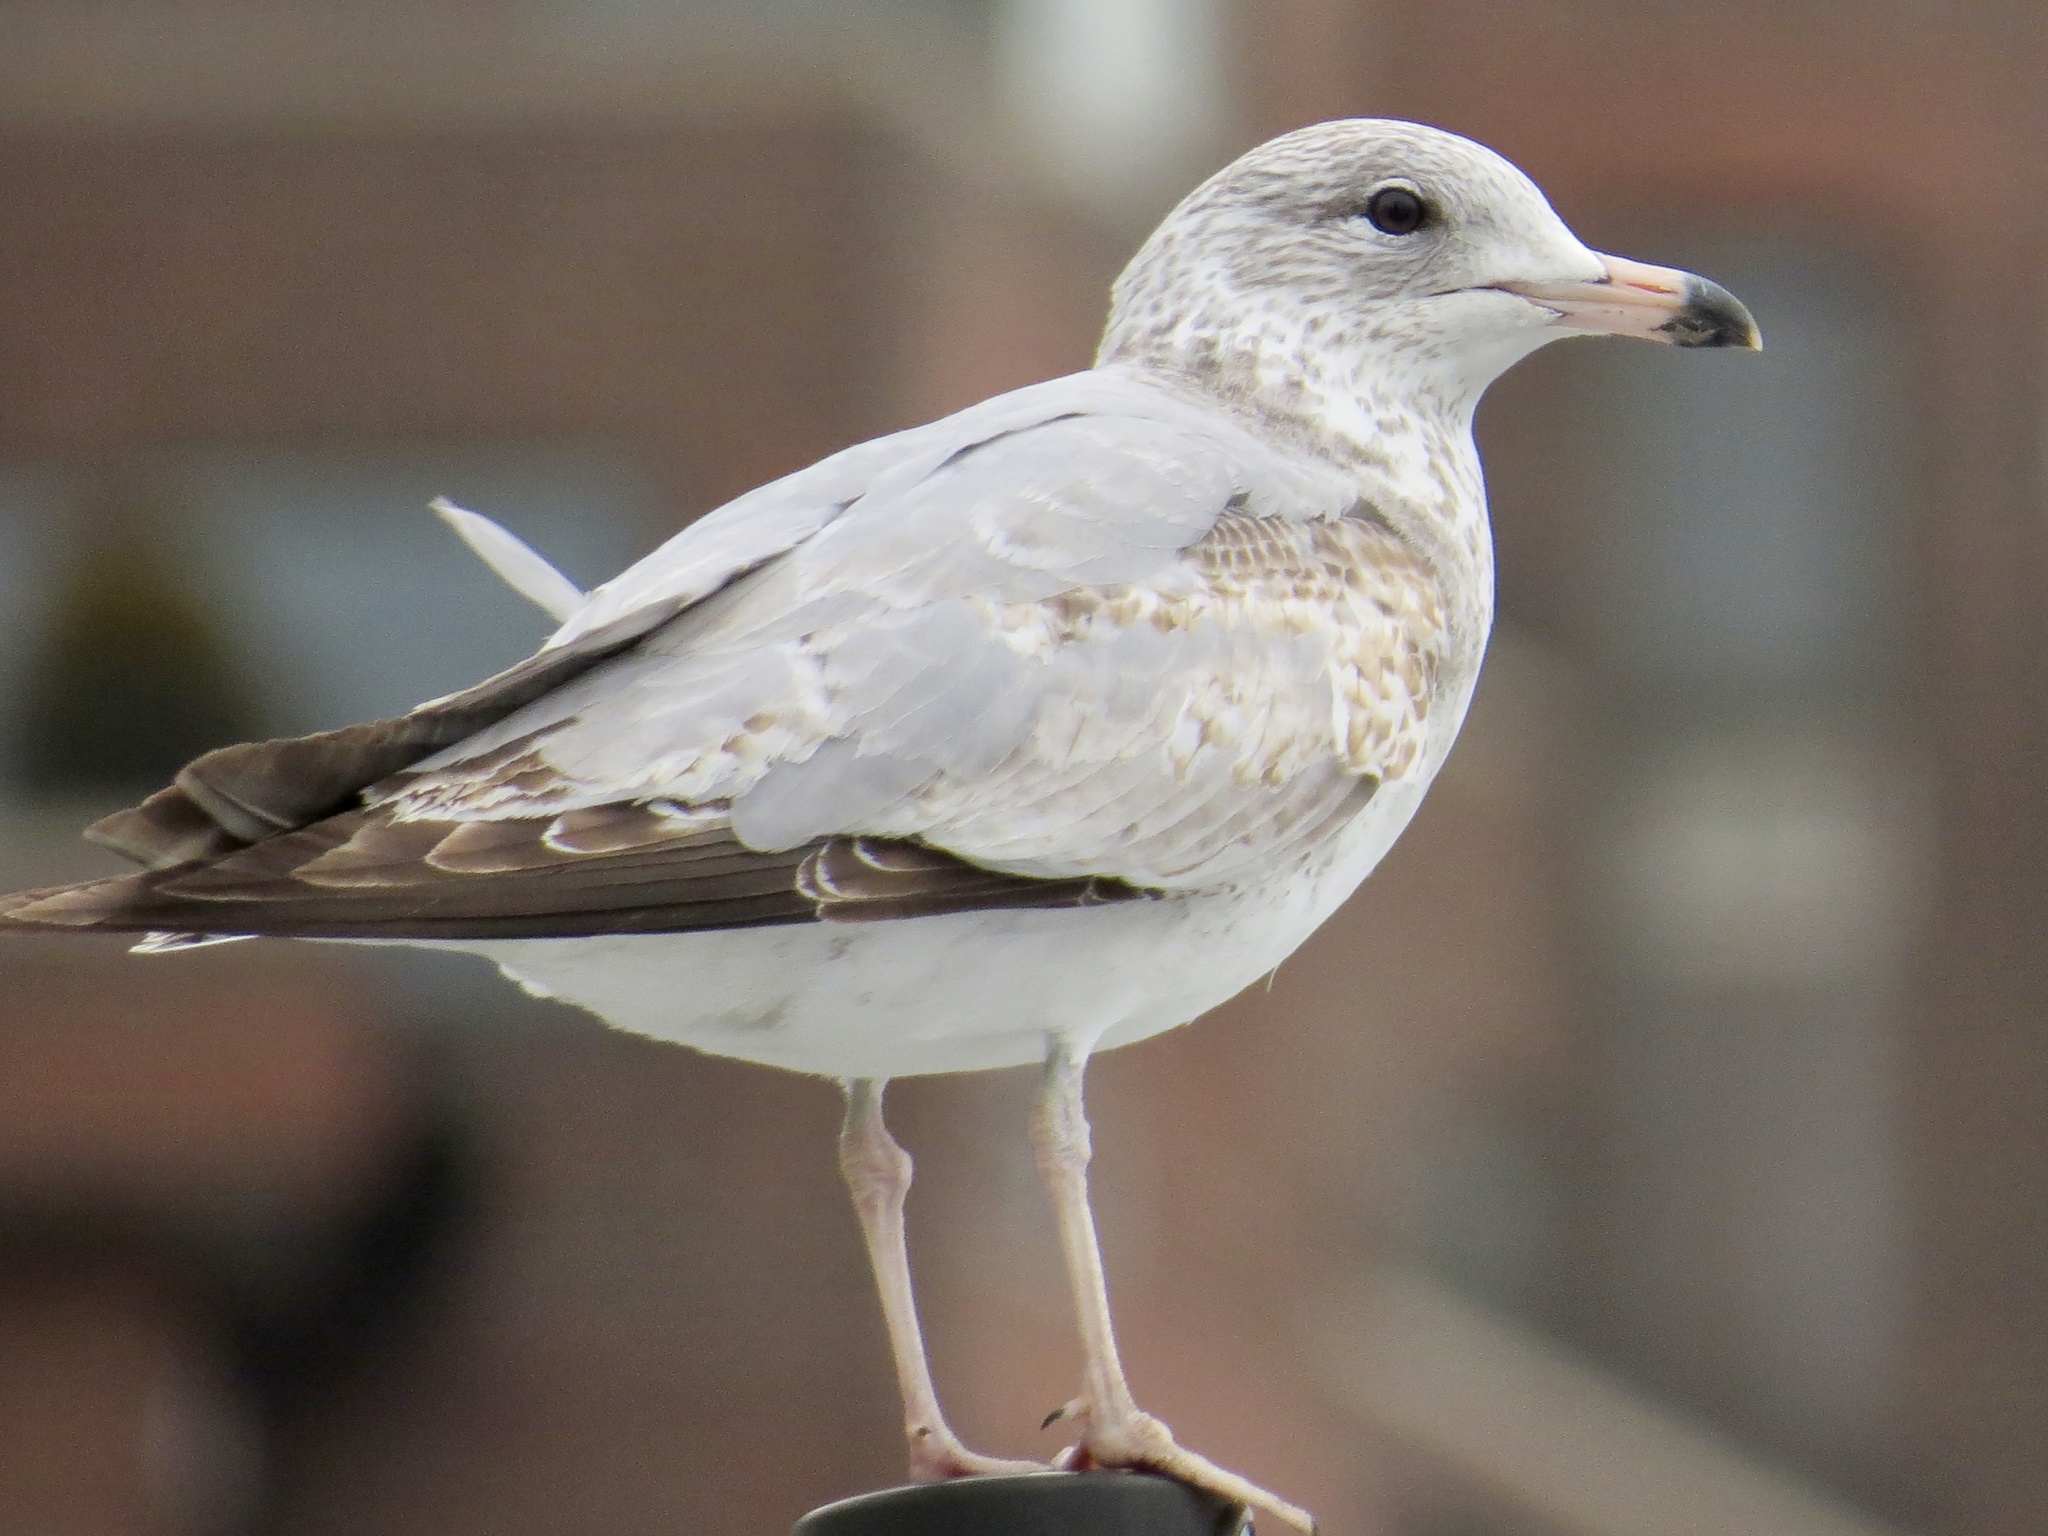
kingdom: Animalia
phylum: Chordata
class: Aves
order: Charadriiformes
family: Laridae
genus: Larus
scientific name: Larus delawarensis
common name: Ring-billed gull
